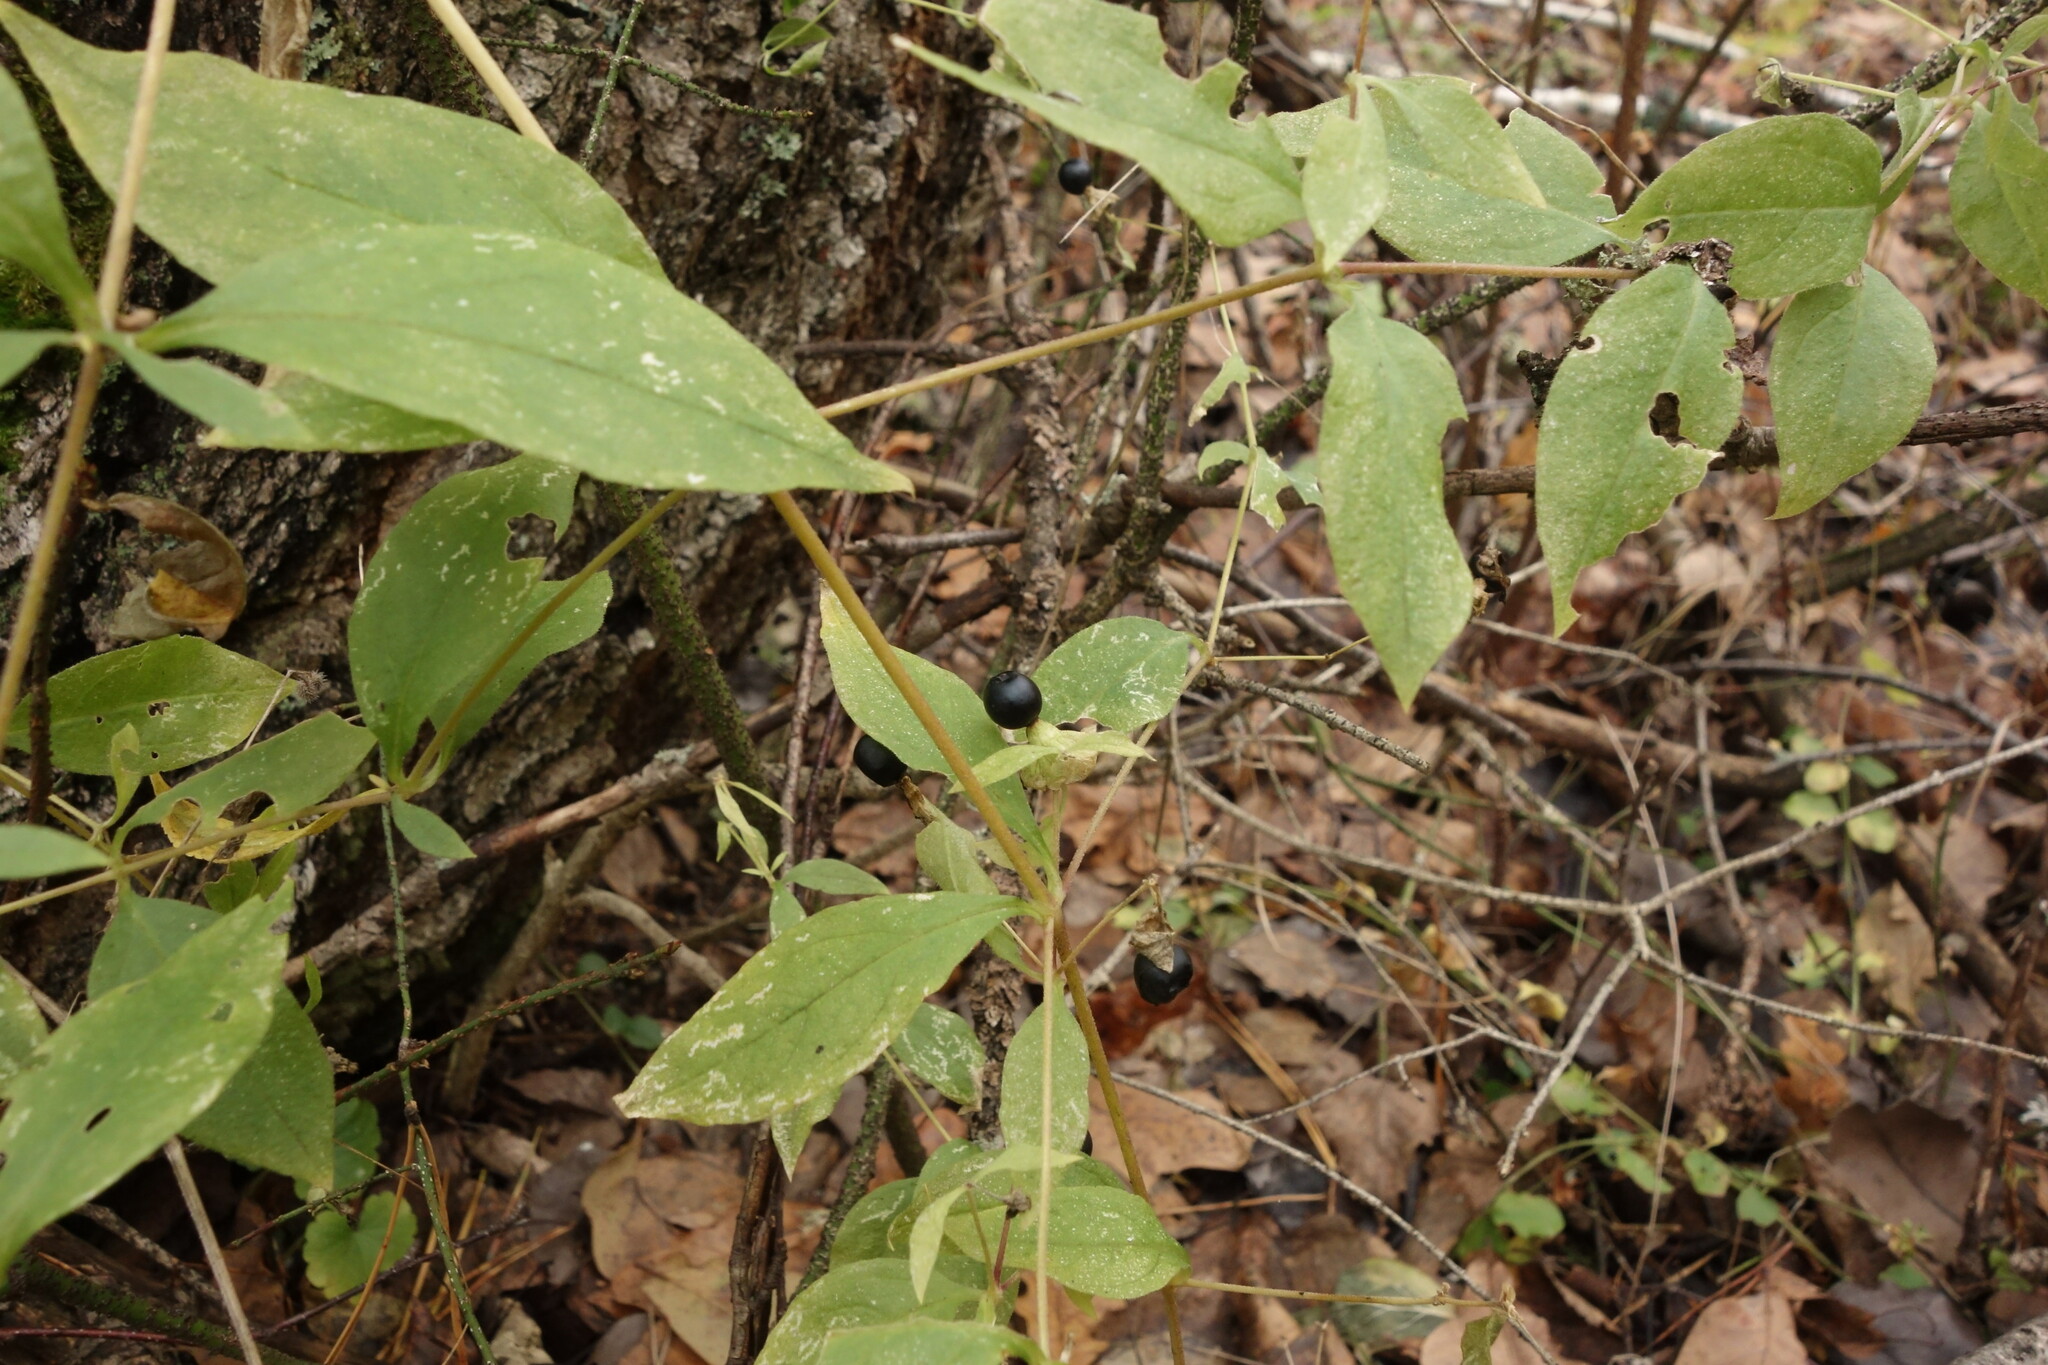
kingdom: Plantae
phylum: Tracheophyta
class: Magnoliopsida
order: Caryophyllales
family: Caryophyllaceae
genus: Silene
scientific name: Silene baccifera
